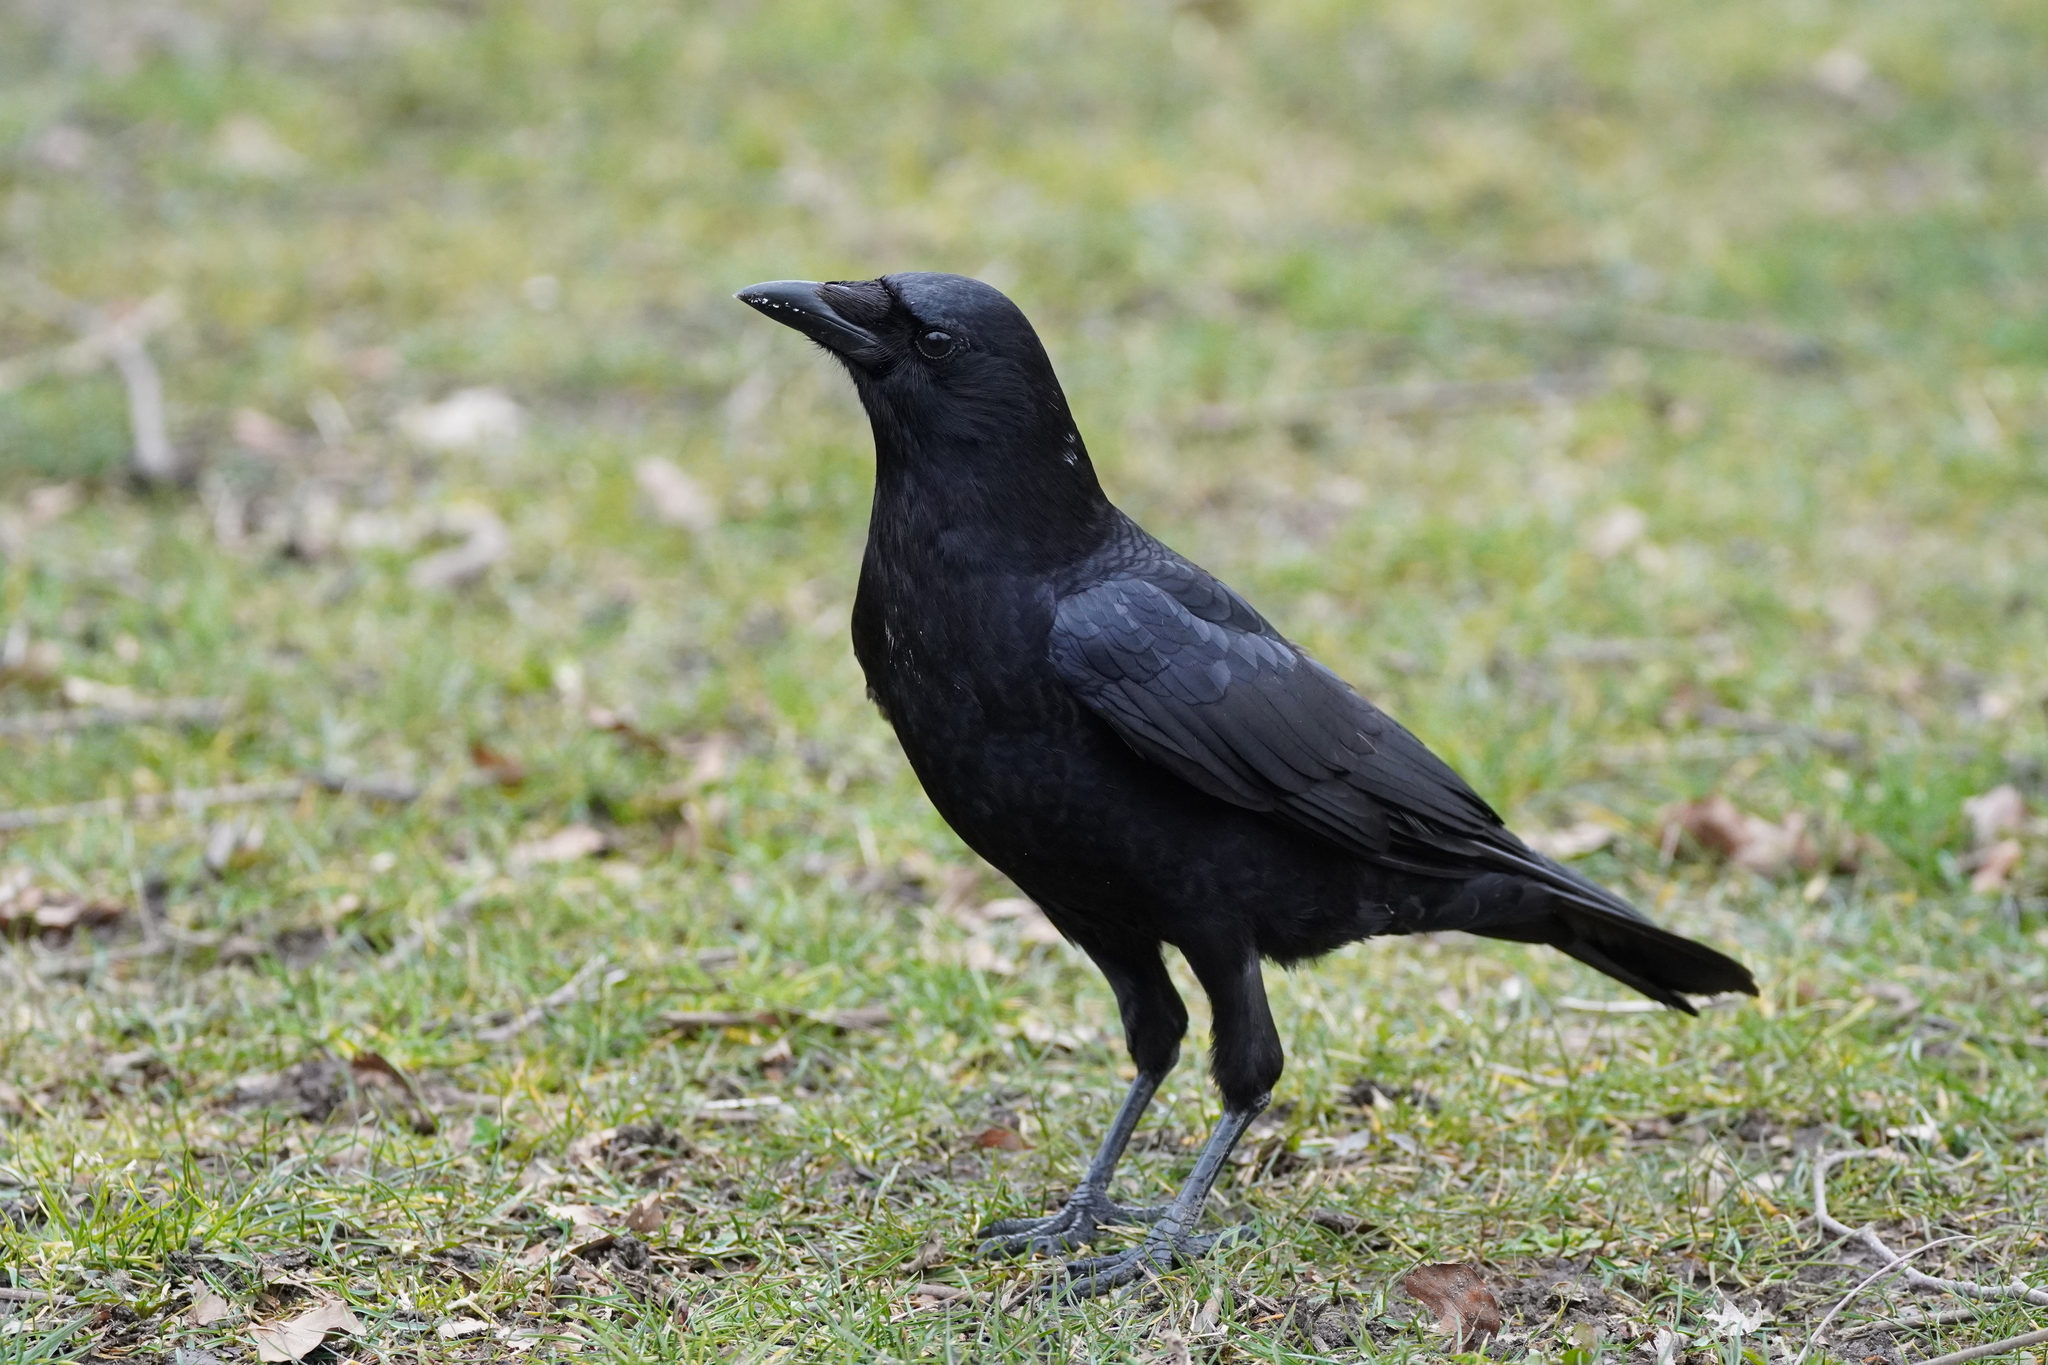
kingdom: Animalia
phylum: Chordata
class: Aves
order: Passeriformes
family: Corvidae
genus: Corvus
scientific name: Corvus brachyrhynchos
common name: American crow
